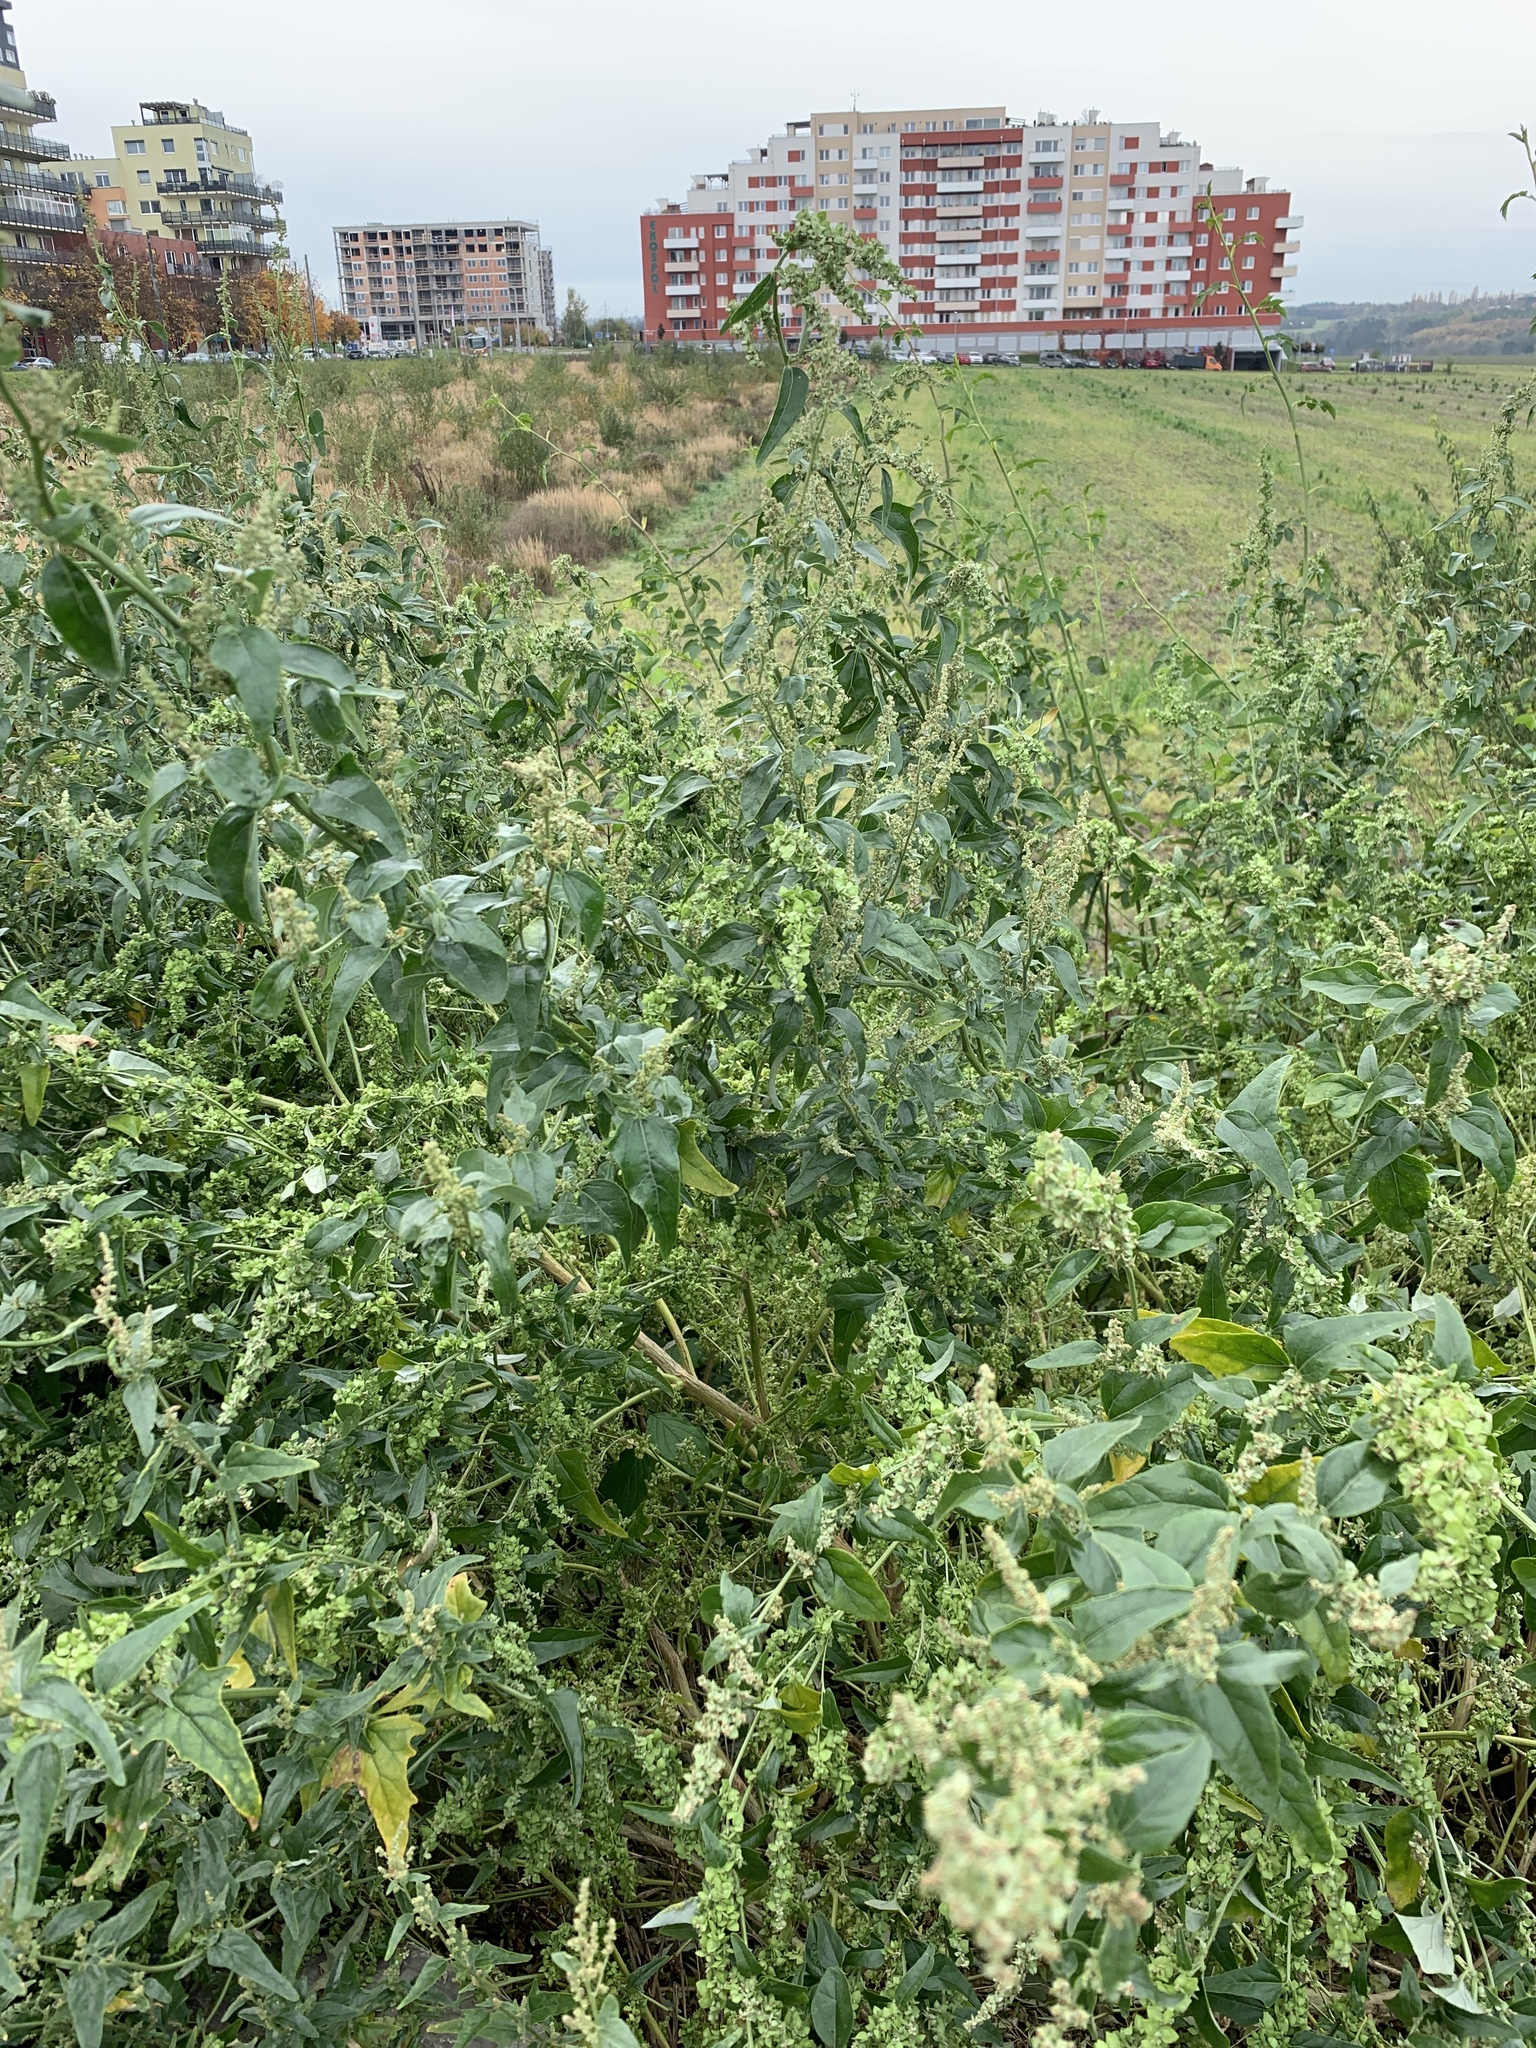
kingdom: Plantae
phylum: Tracheophyta
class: Magnoliopsida
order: Caryophyllales
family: Amaranthaceae
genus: Atriplex
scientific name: Atriplex sagittata
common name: Purple orache
